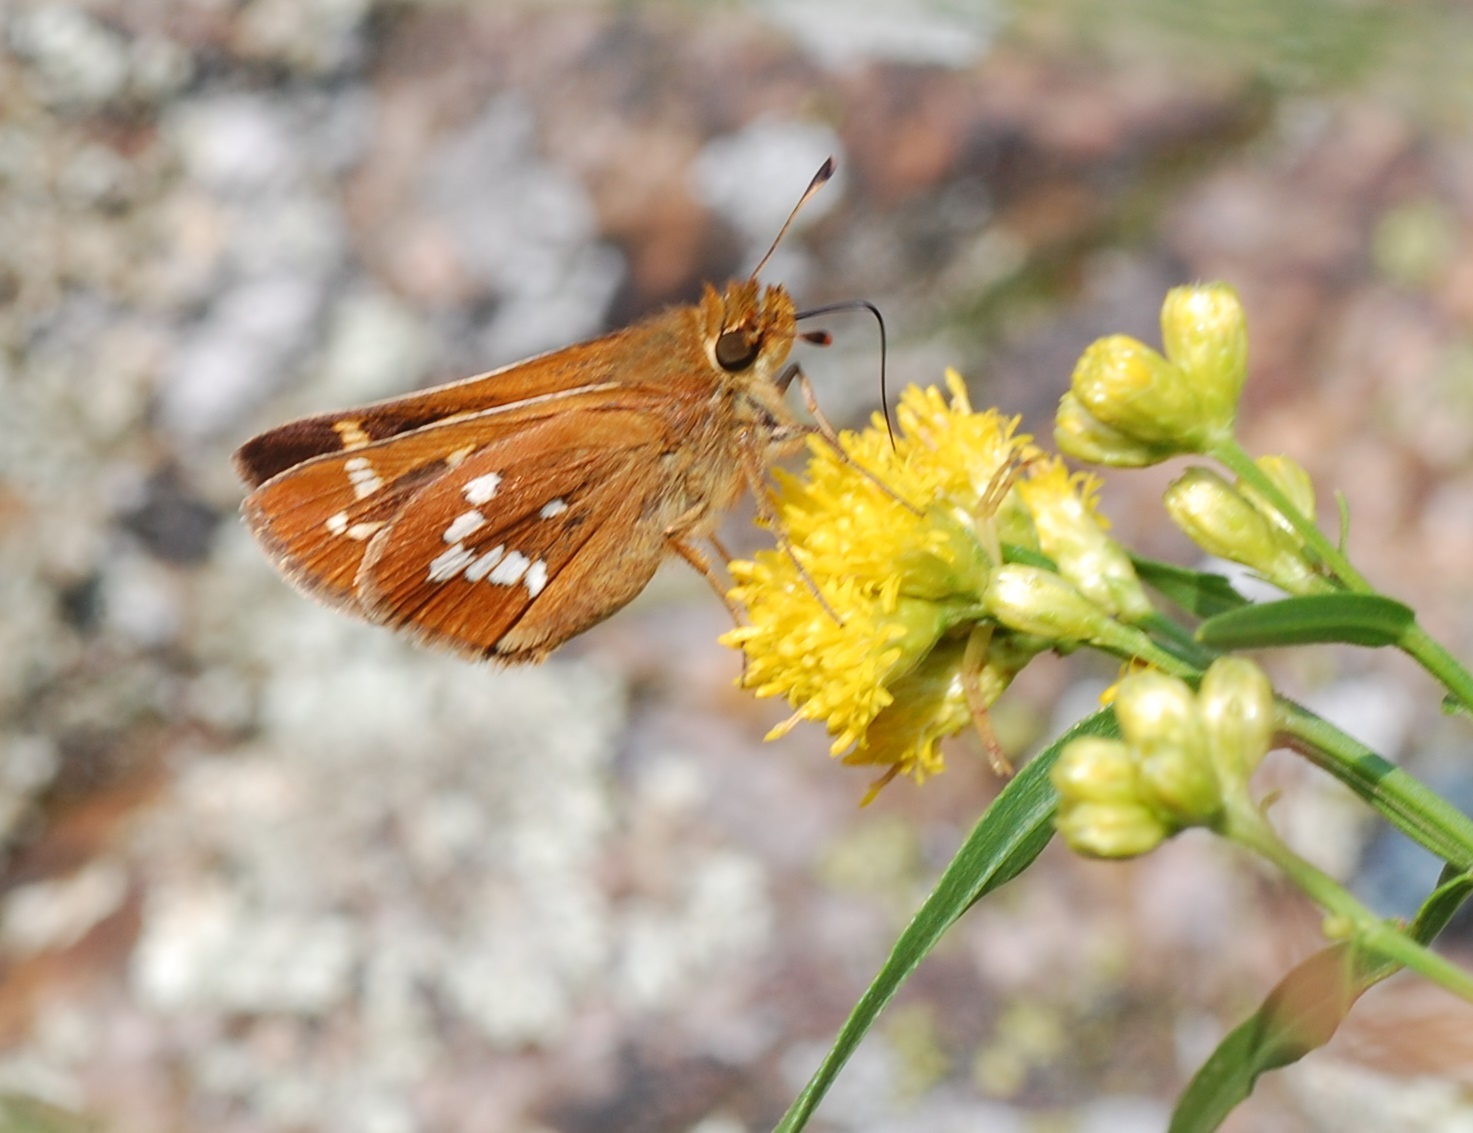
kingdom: Animalia
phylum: Arthropoda
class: Insecta
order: Lepidoptera
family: Hesperiidae
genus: Hesperia
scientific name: Hesperia leonardus
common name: Leonard's skipper
